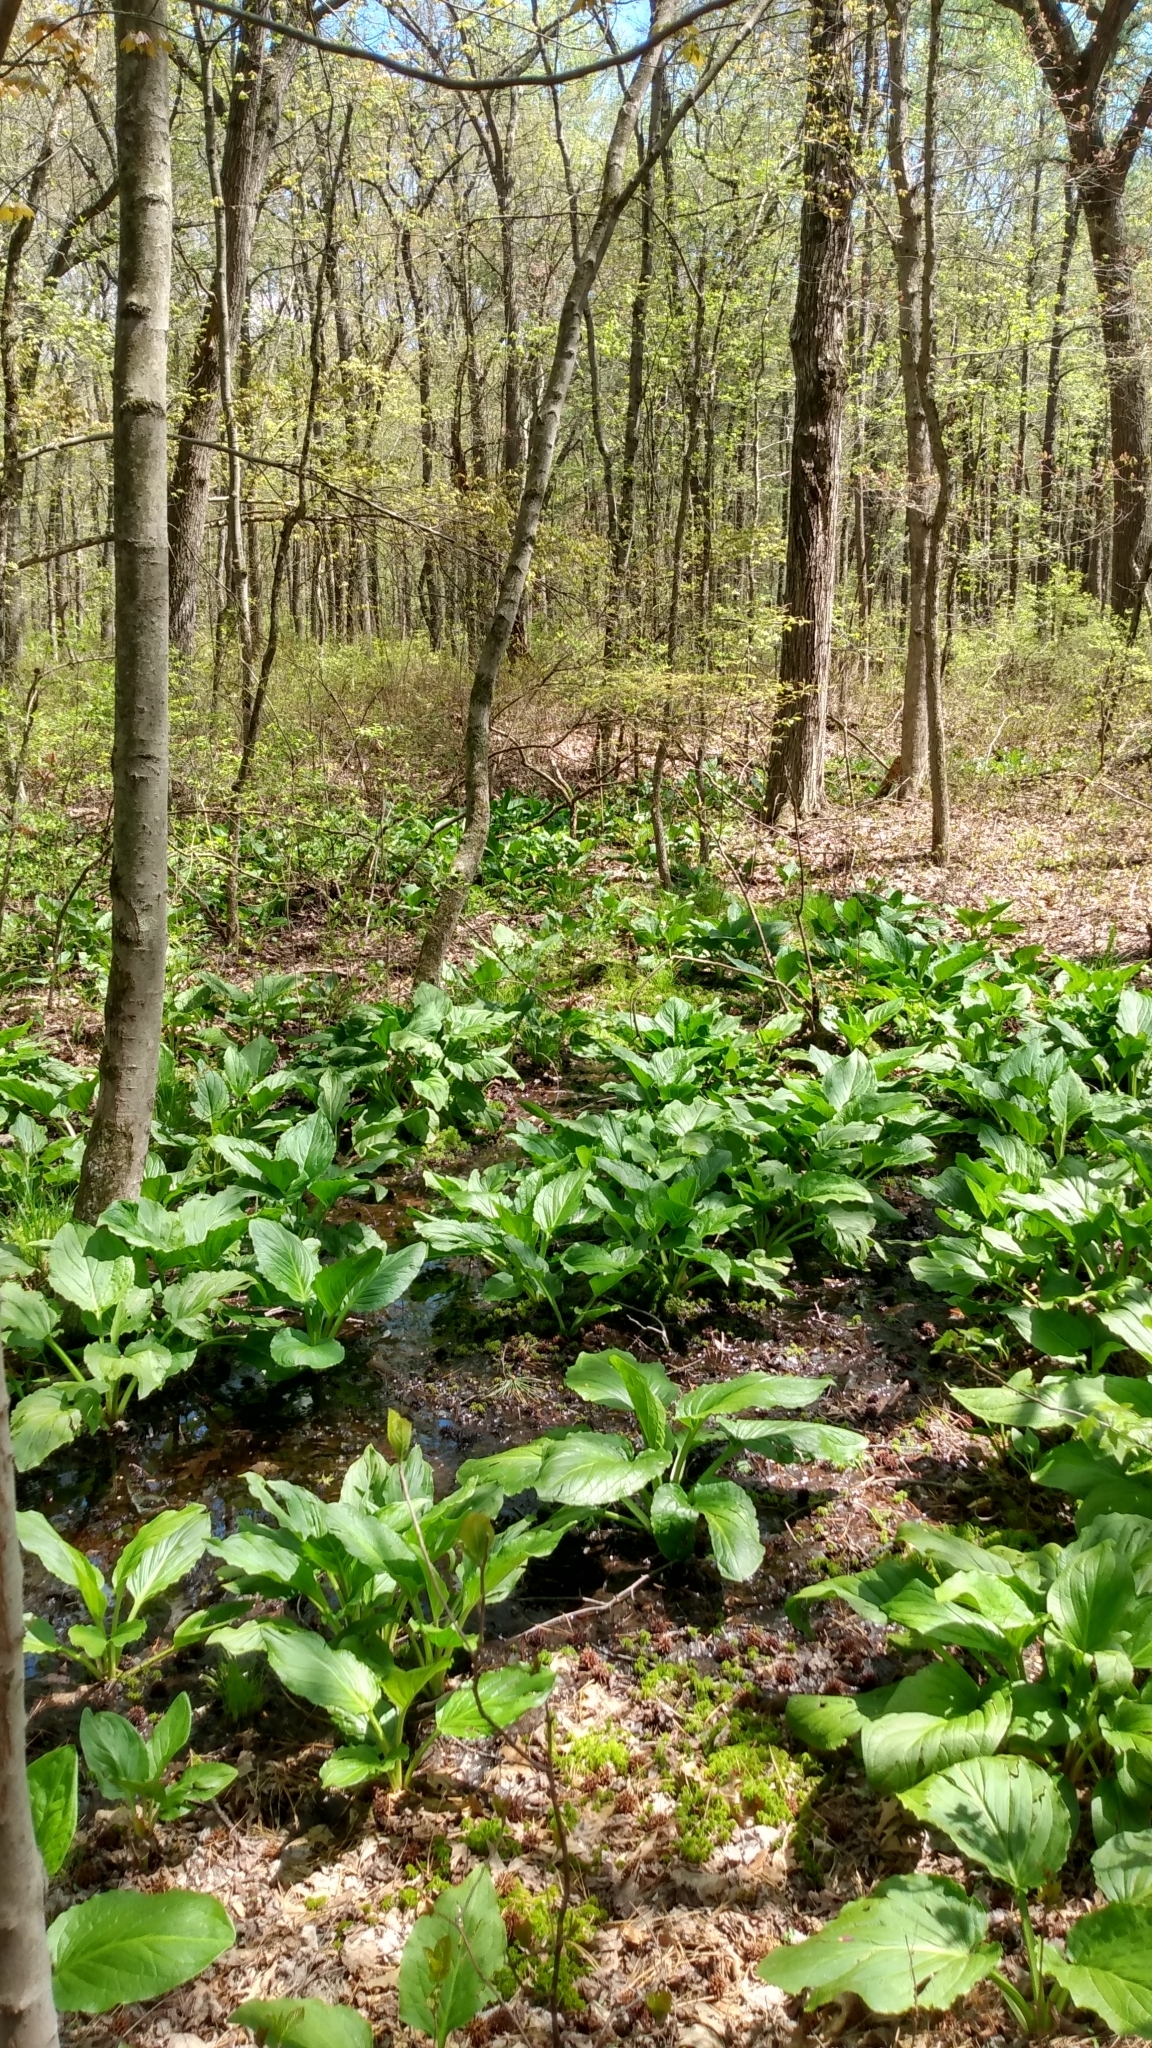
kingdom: Plantae
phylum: Tracheophyta
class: Liliopsida
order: Alismatales
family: Araceae
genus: Symplocarpus
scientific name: Symplocarpus foetidus
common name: Eastern skunk cabbage
